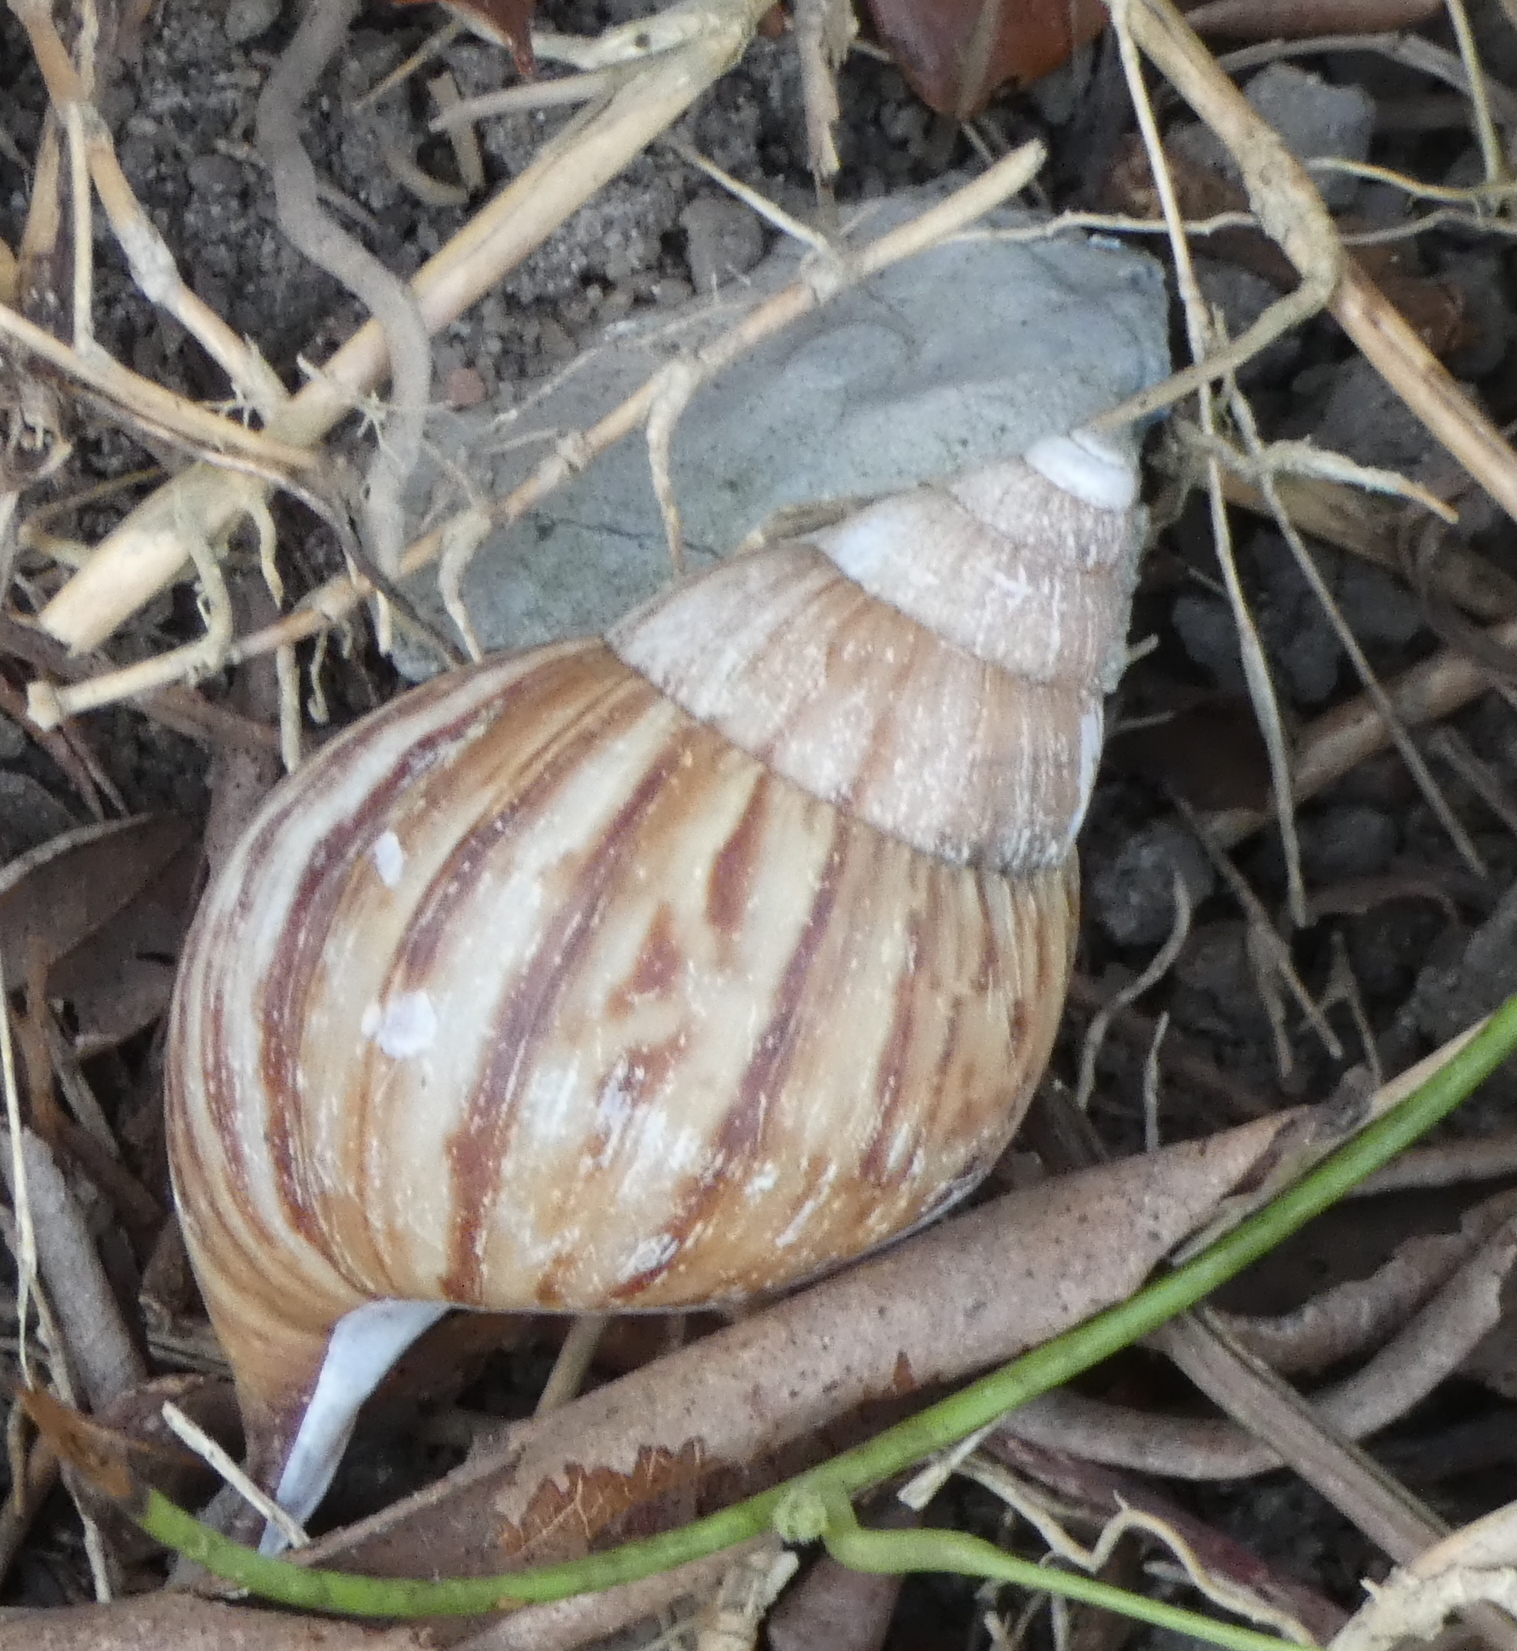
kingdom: Animalia
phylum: Mollusca
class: Gastropoda
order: Stylommatophora
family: Achatinidae
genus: Lissachatina
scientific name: Lissachatina fulica
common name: Giant african snail
